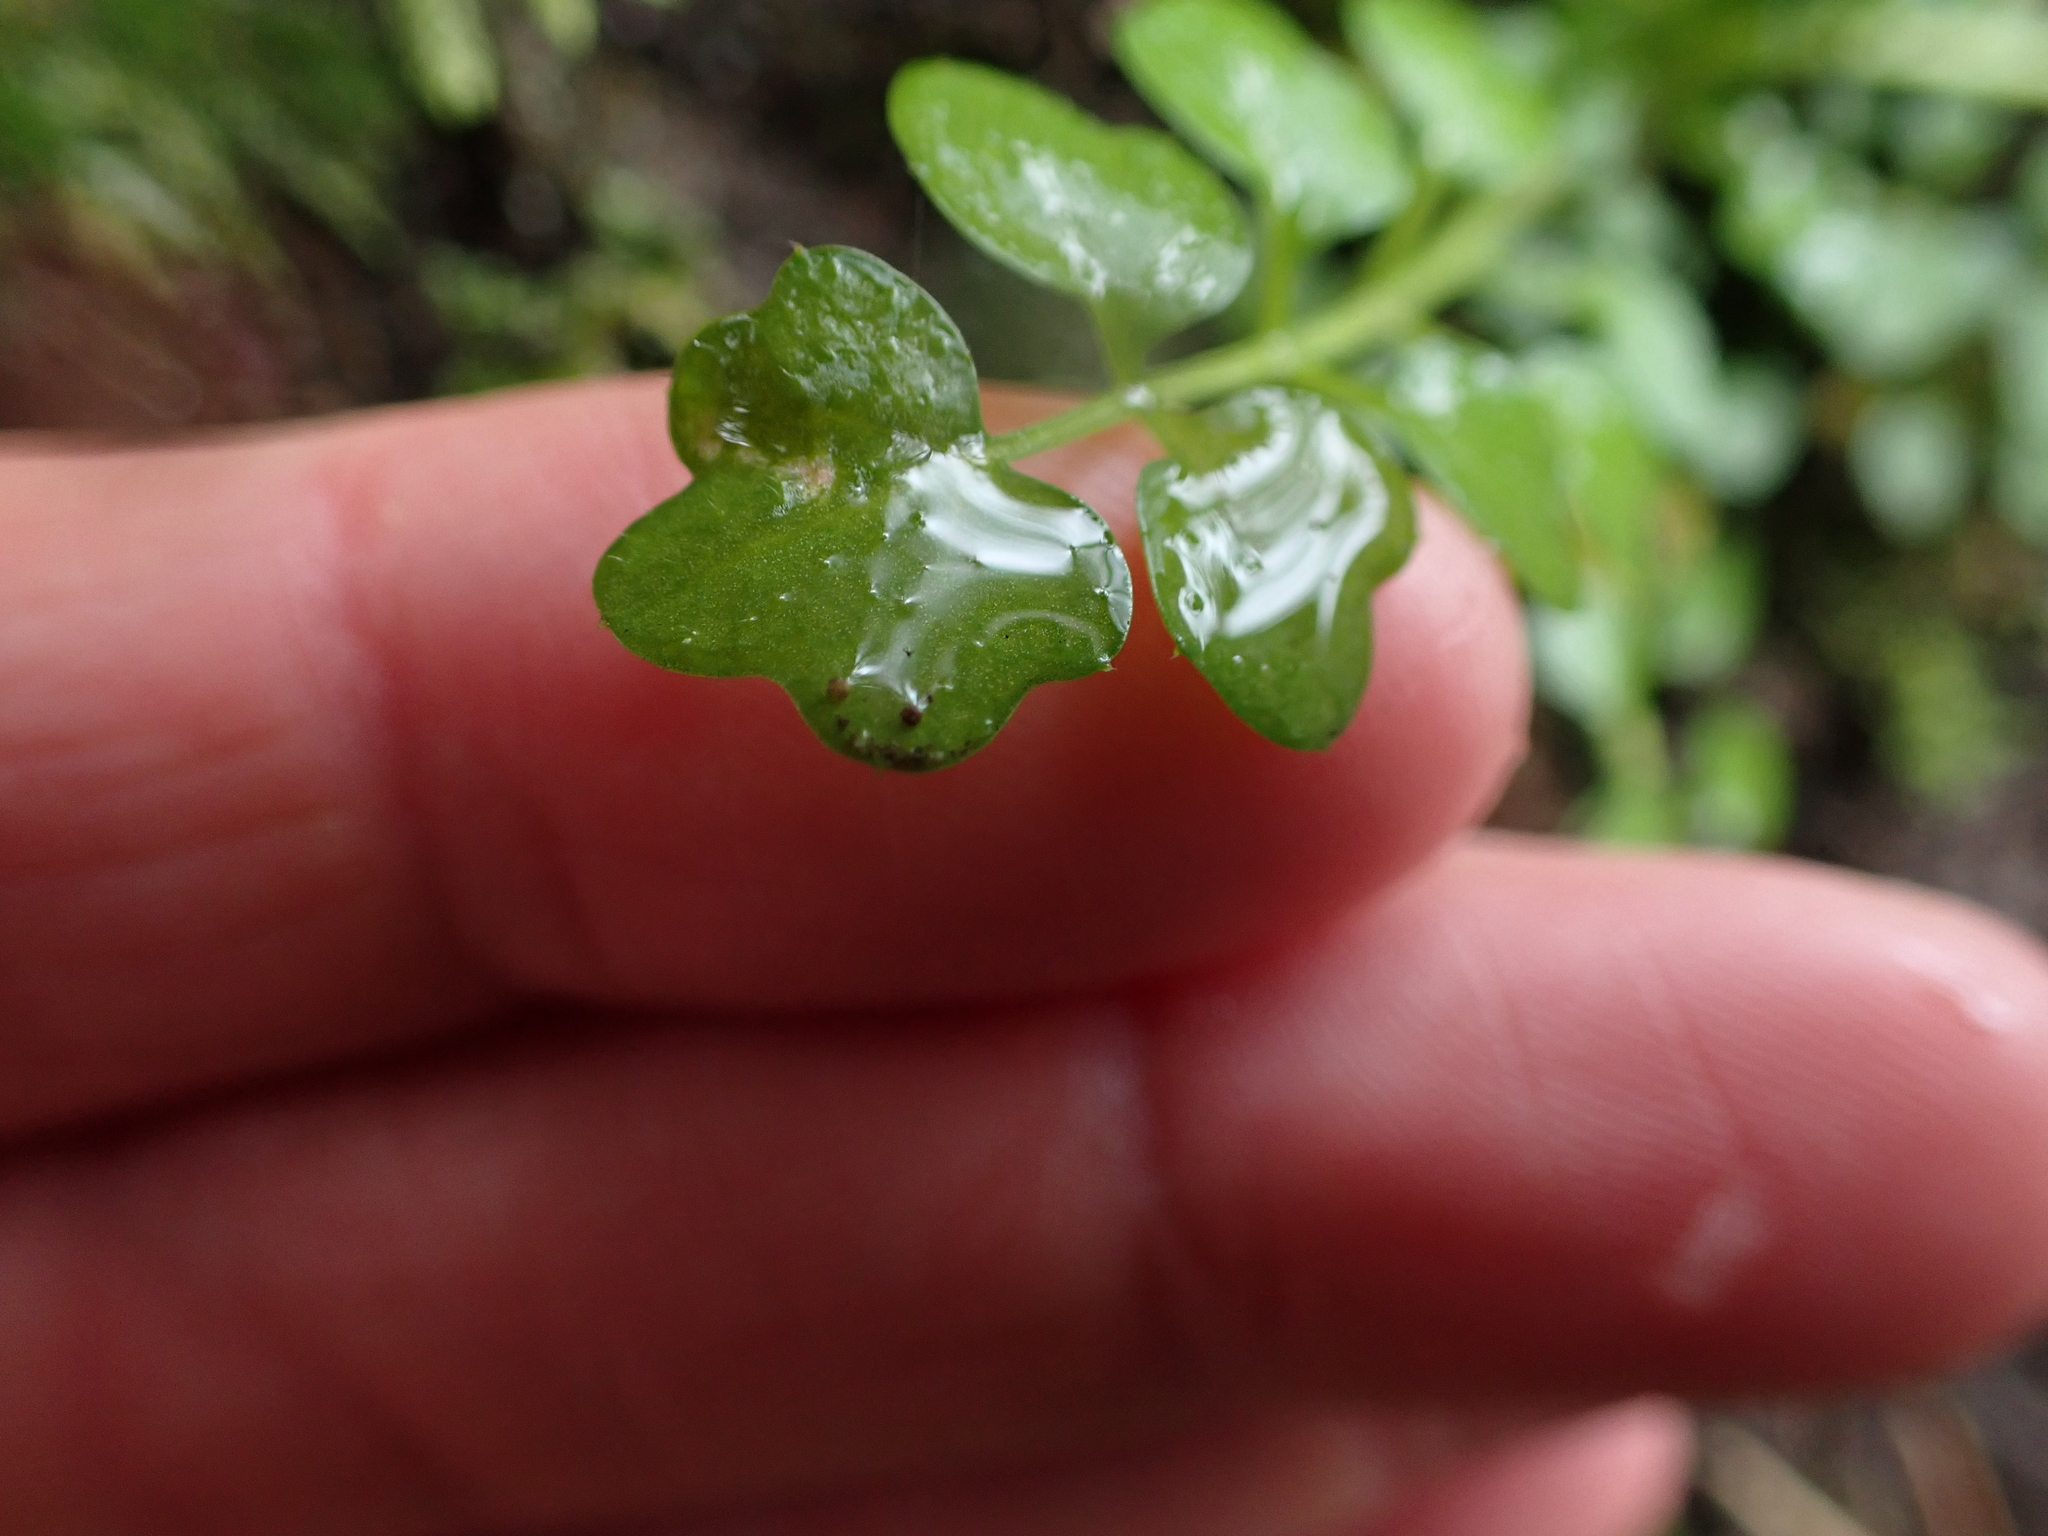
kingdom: Plantae
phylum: Tracheophyta
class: Magnoliopsida
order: Brassicales
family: Brassicaceae
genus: Cardamine
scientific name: Cardamine oligosperma
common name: Idaho bittercress
